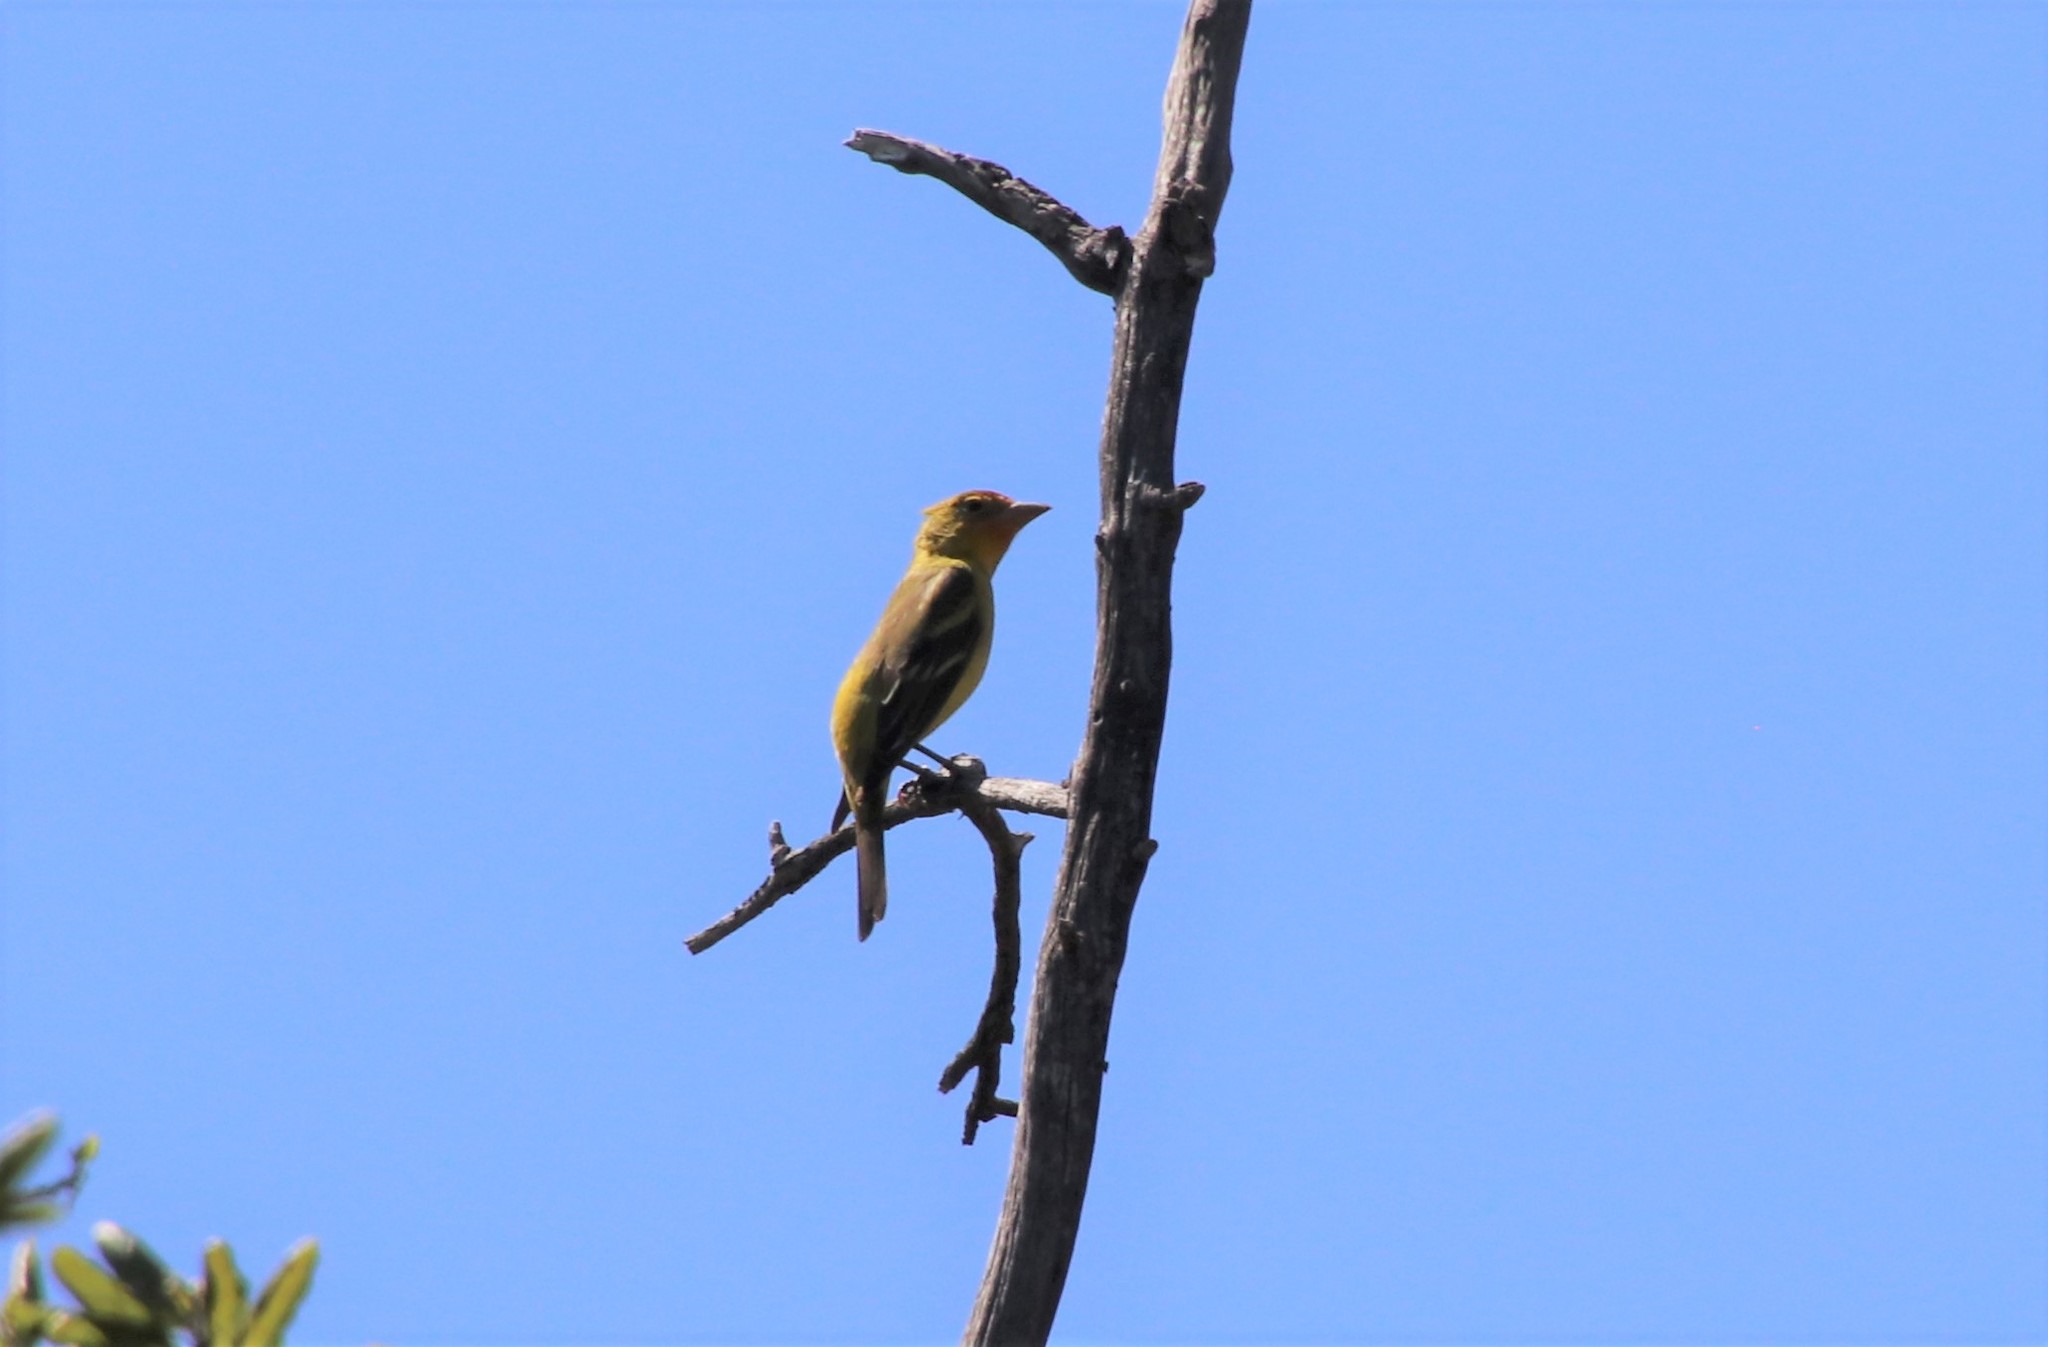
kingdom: Animalia
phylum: Chordata
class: Aves
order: Passeriformes
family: Cardinalidae
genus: Piranga
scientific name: Piranga ludoviciana
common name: Western tanager
